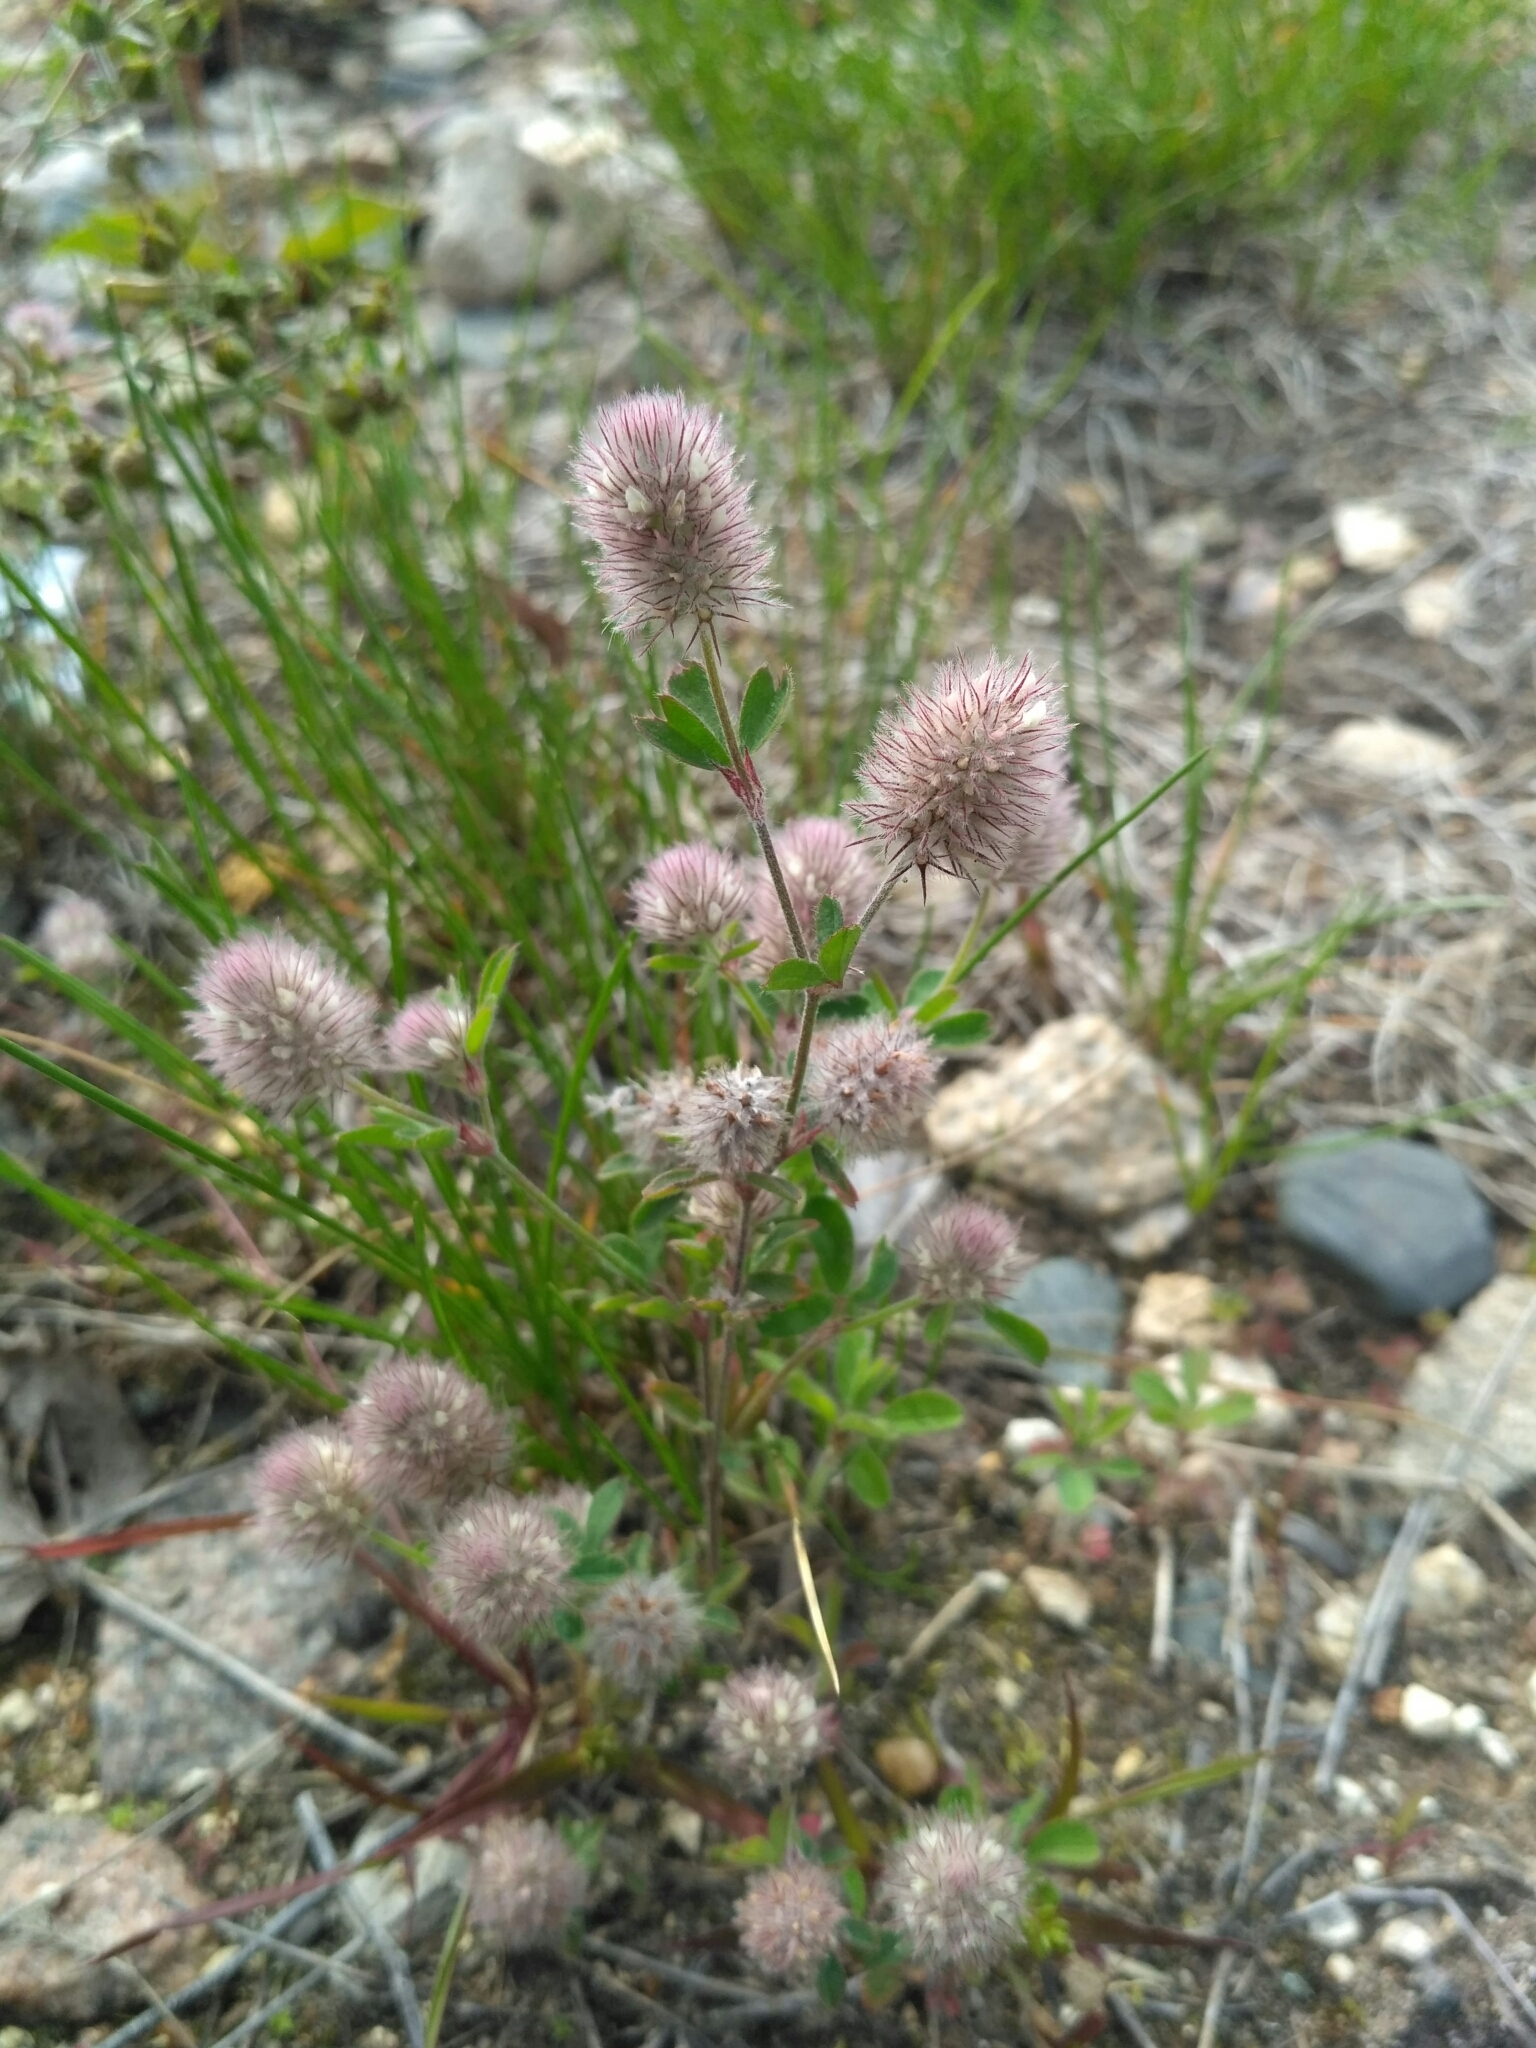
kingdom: Plantae
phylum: Tracheophyta
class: Magnoliopsida
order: Fabales
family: Fabaceae
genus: Trifolium
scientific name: Trifolium arvense
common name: Hare's-foot clover
